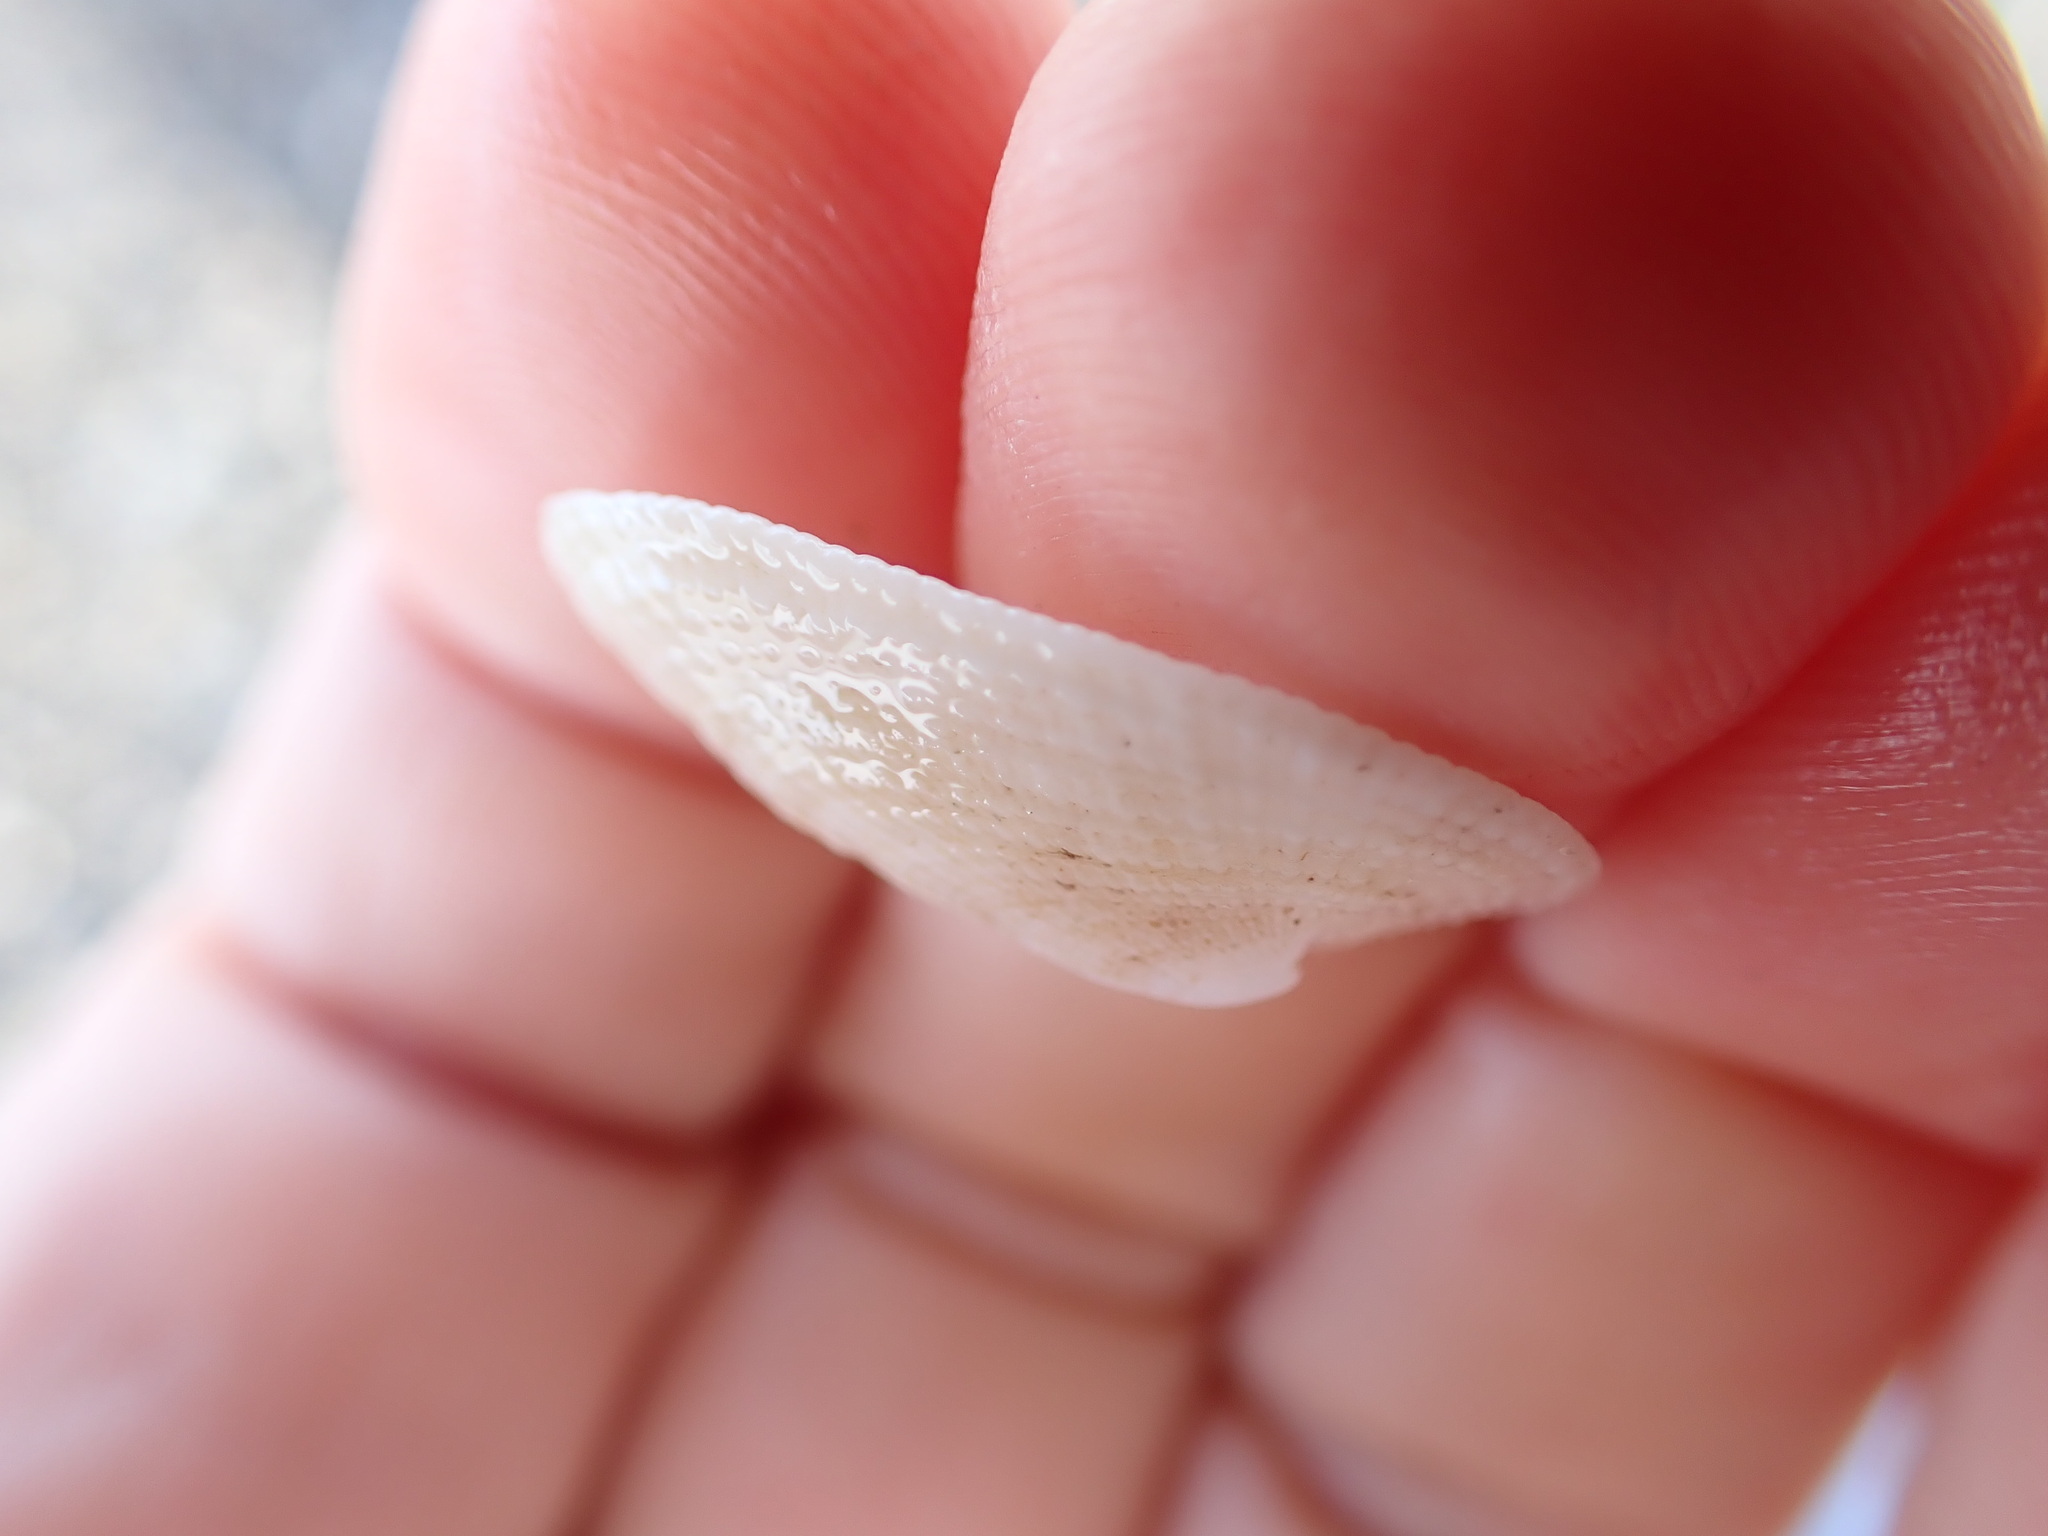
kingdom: Animalia
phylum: Mollusca
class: Gastropoda
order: Lepetellida
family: Fissurellidae
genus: Tugali
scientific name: Tugali elegans
